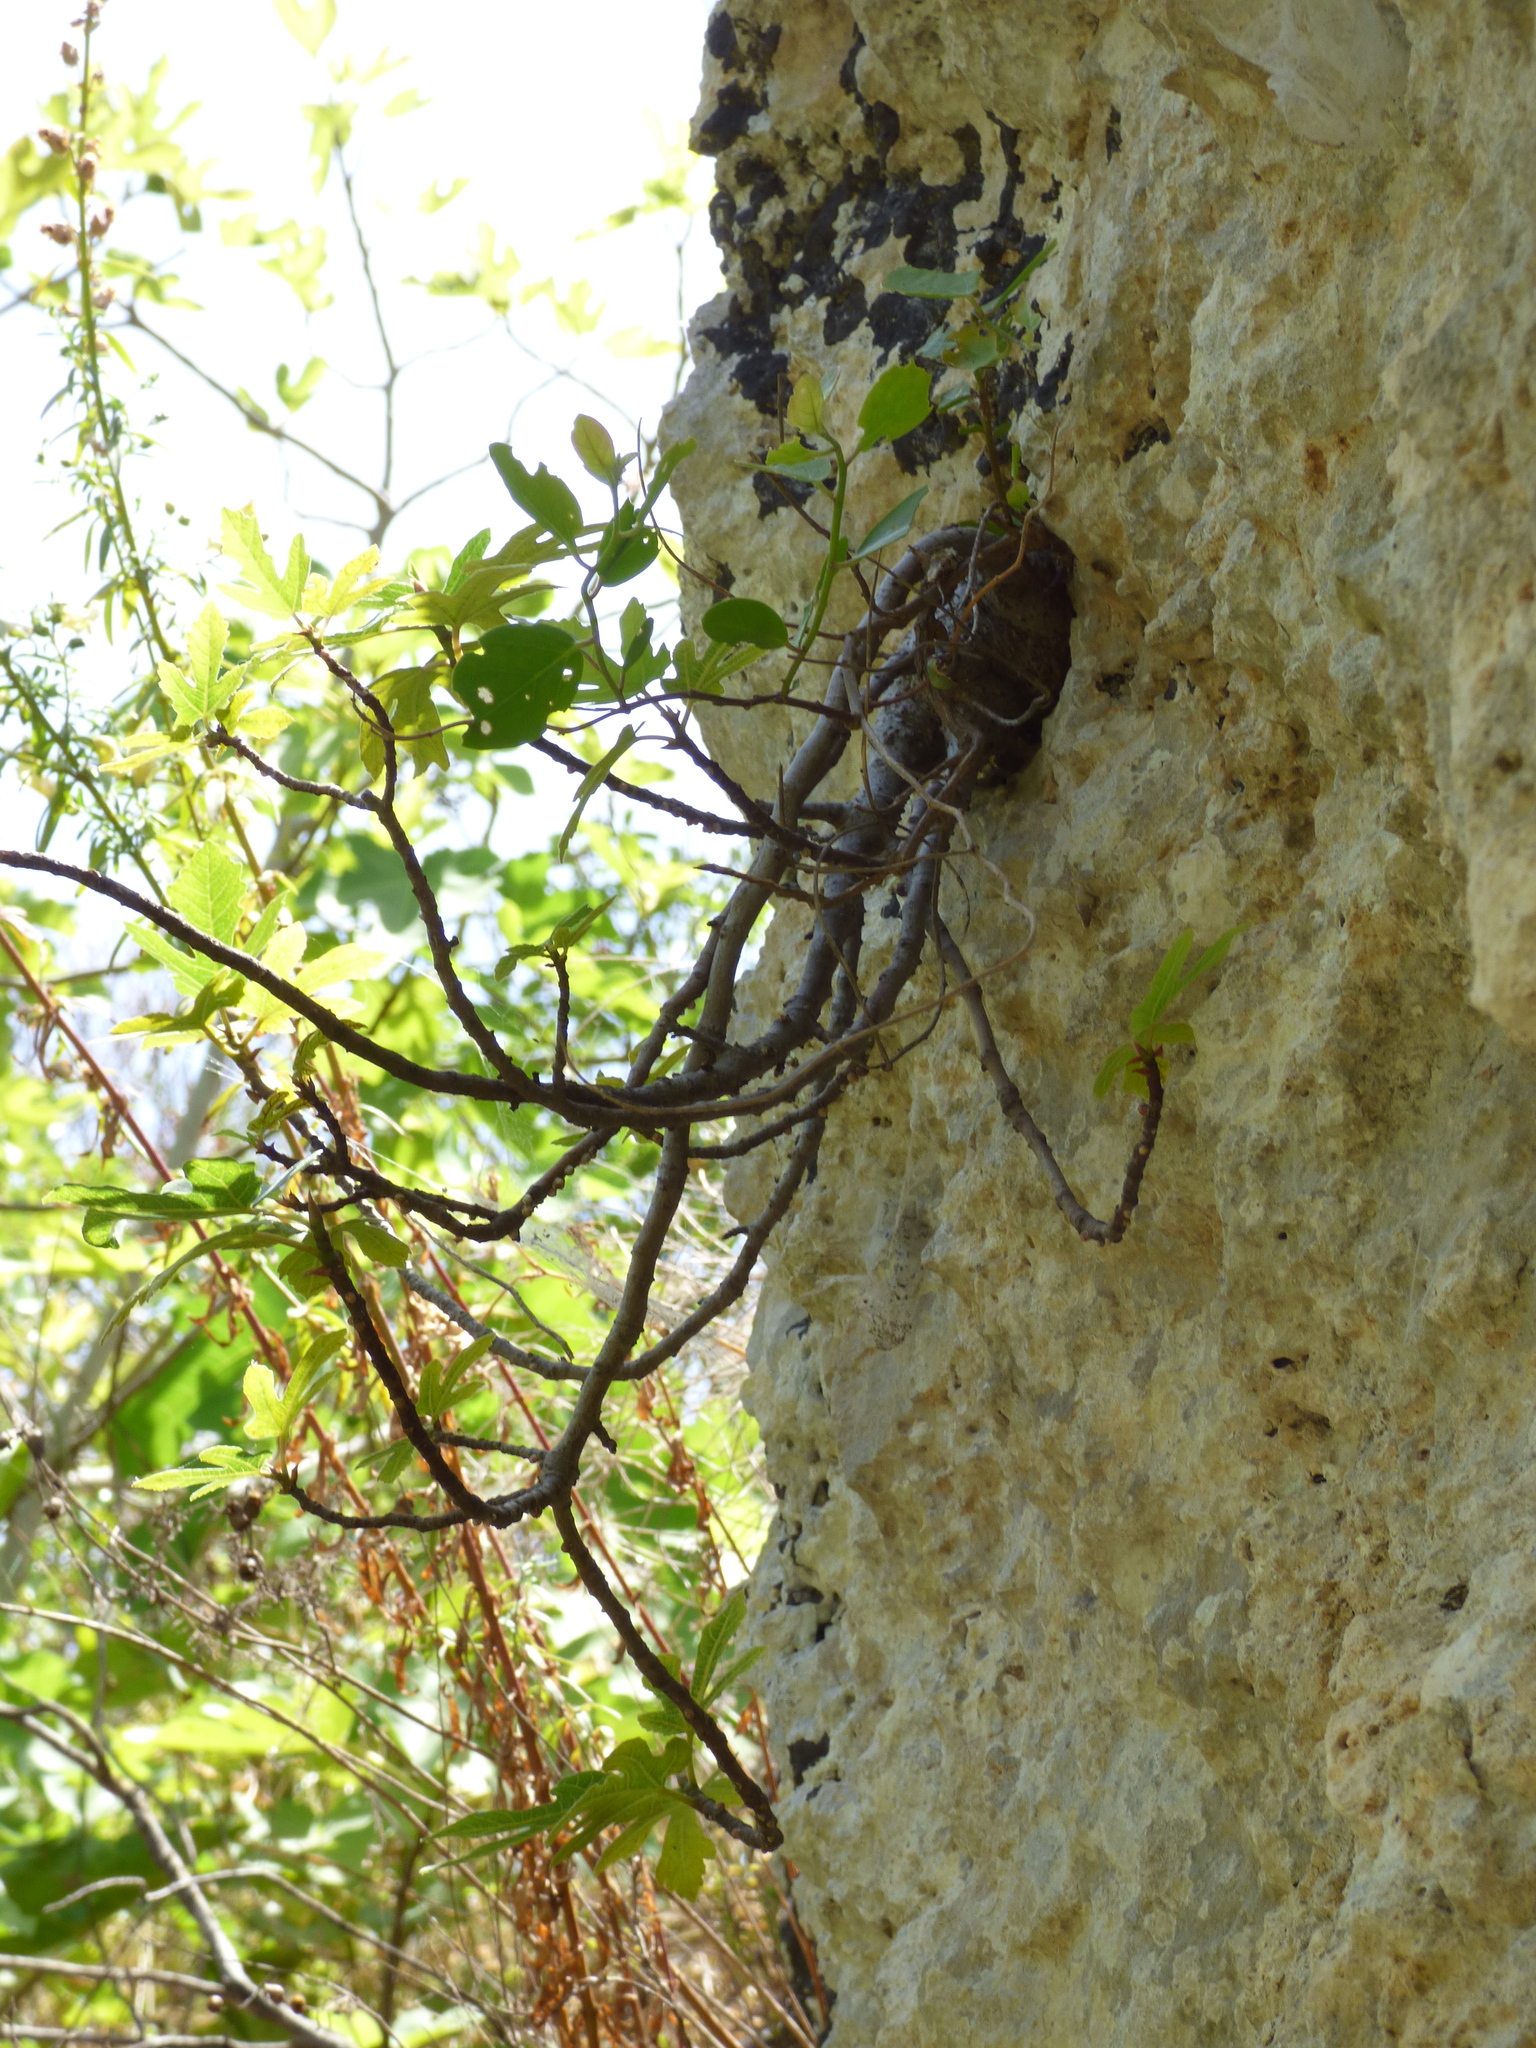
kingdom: Plantae
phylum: Tracheophyta
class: Magnoliopsida
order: Rosales
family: Moraceae
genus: Ficus
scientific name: Ficus carica
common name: Fig
